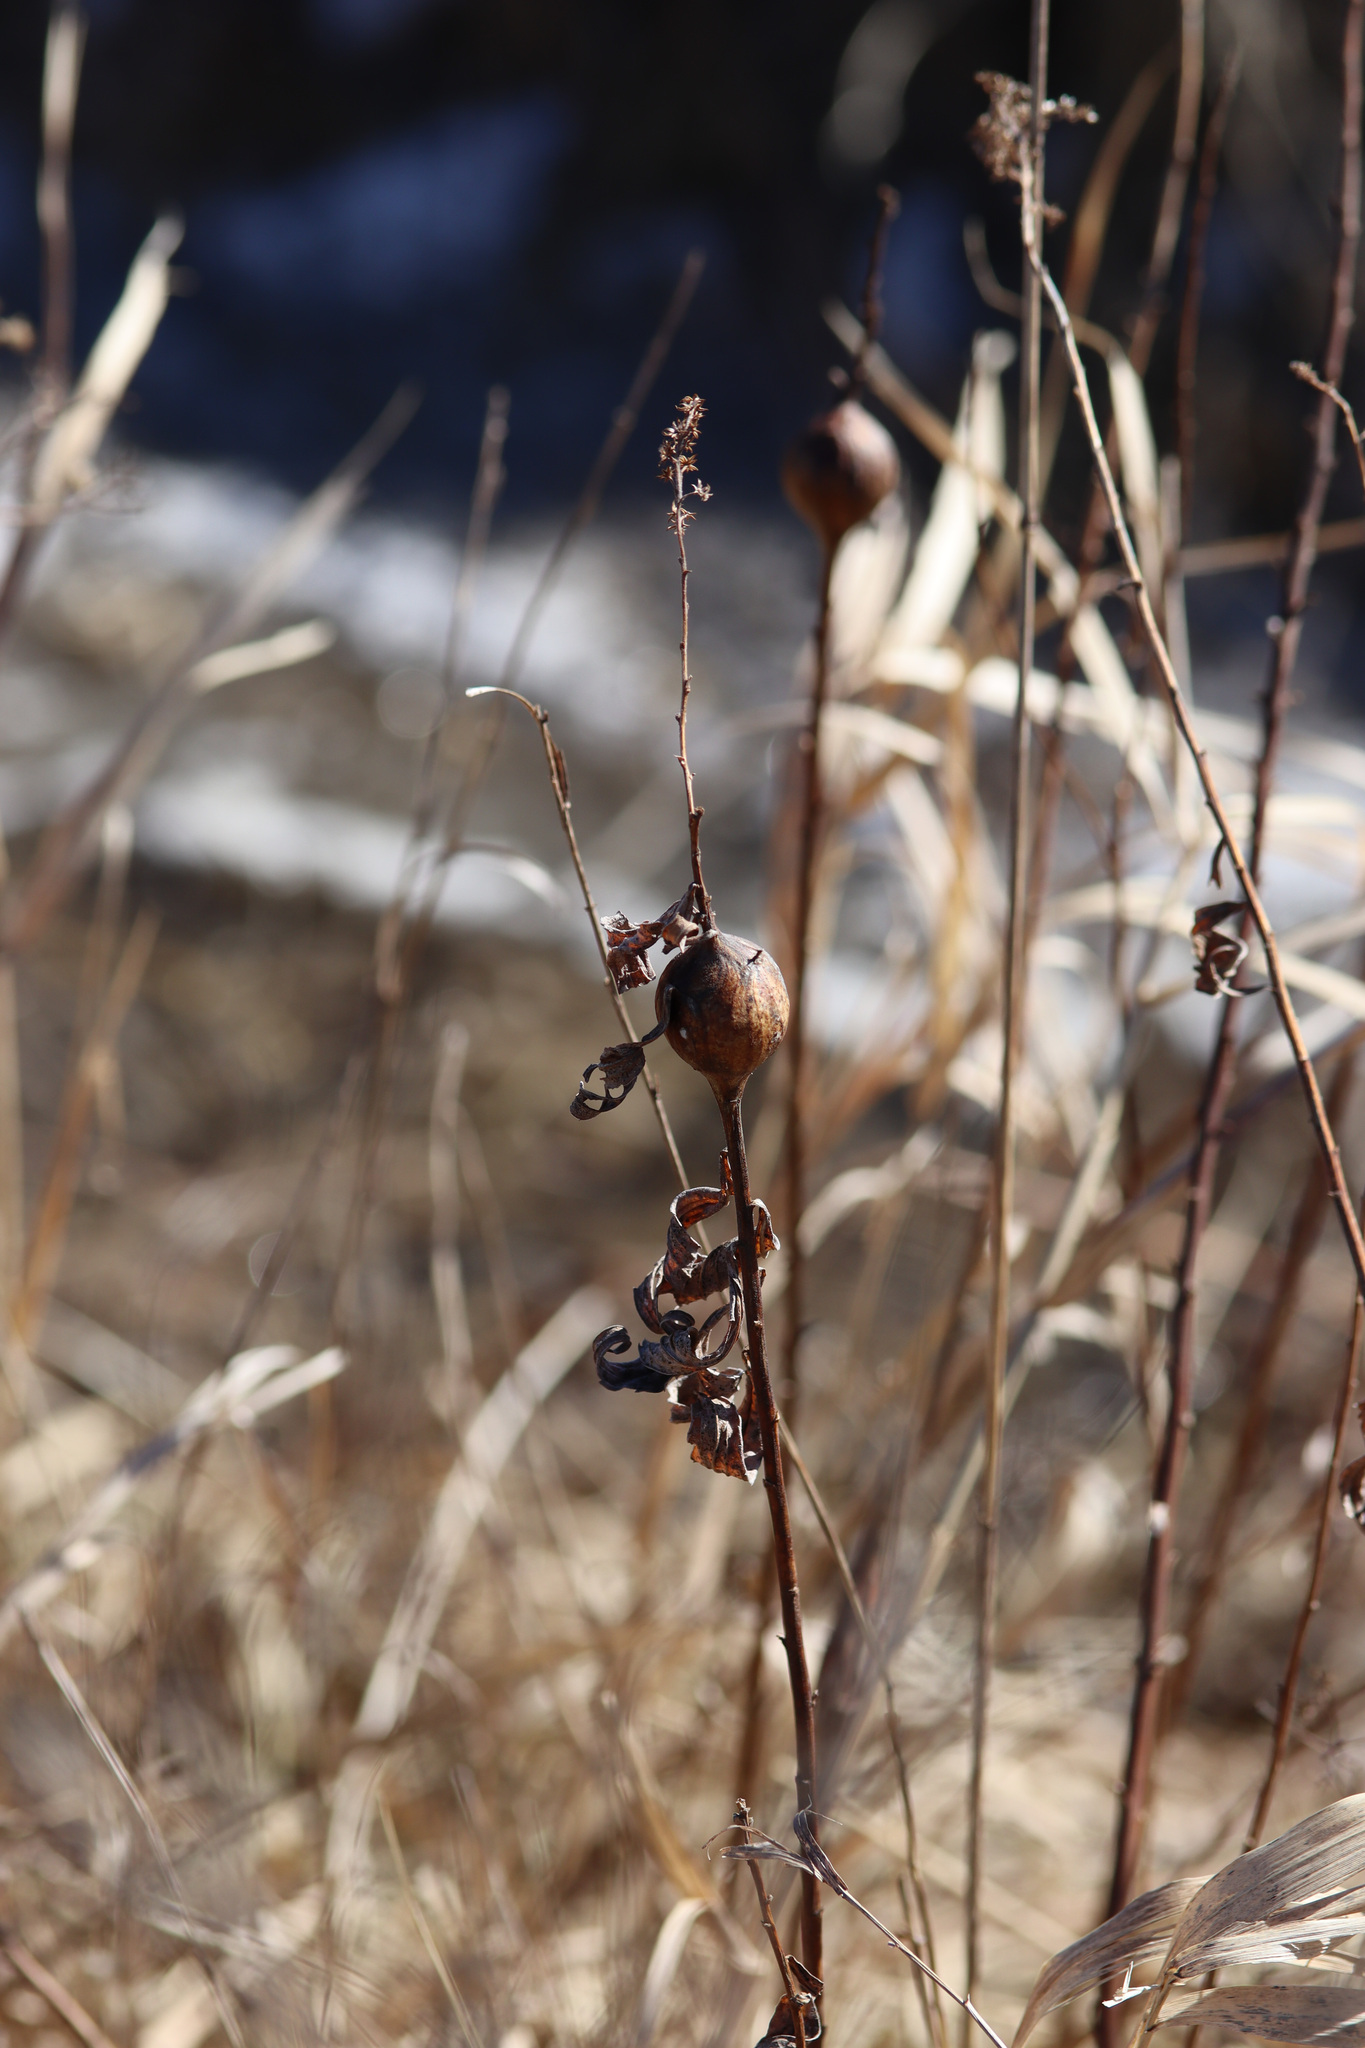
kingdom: Animalia
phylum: Arthropoda
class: Insecta
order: Diptera
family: Tephritidae
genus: Eurosta
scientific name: Eurosta solidaginis
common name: Goldenrod gall fly
